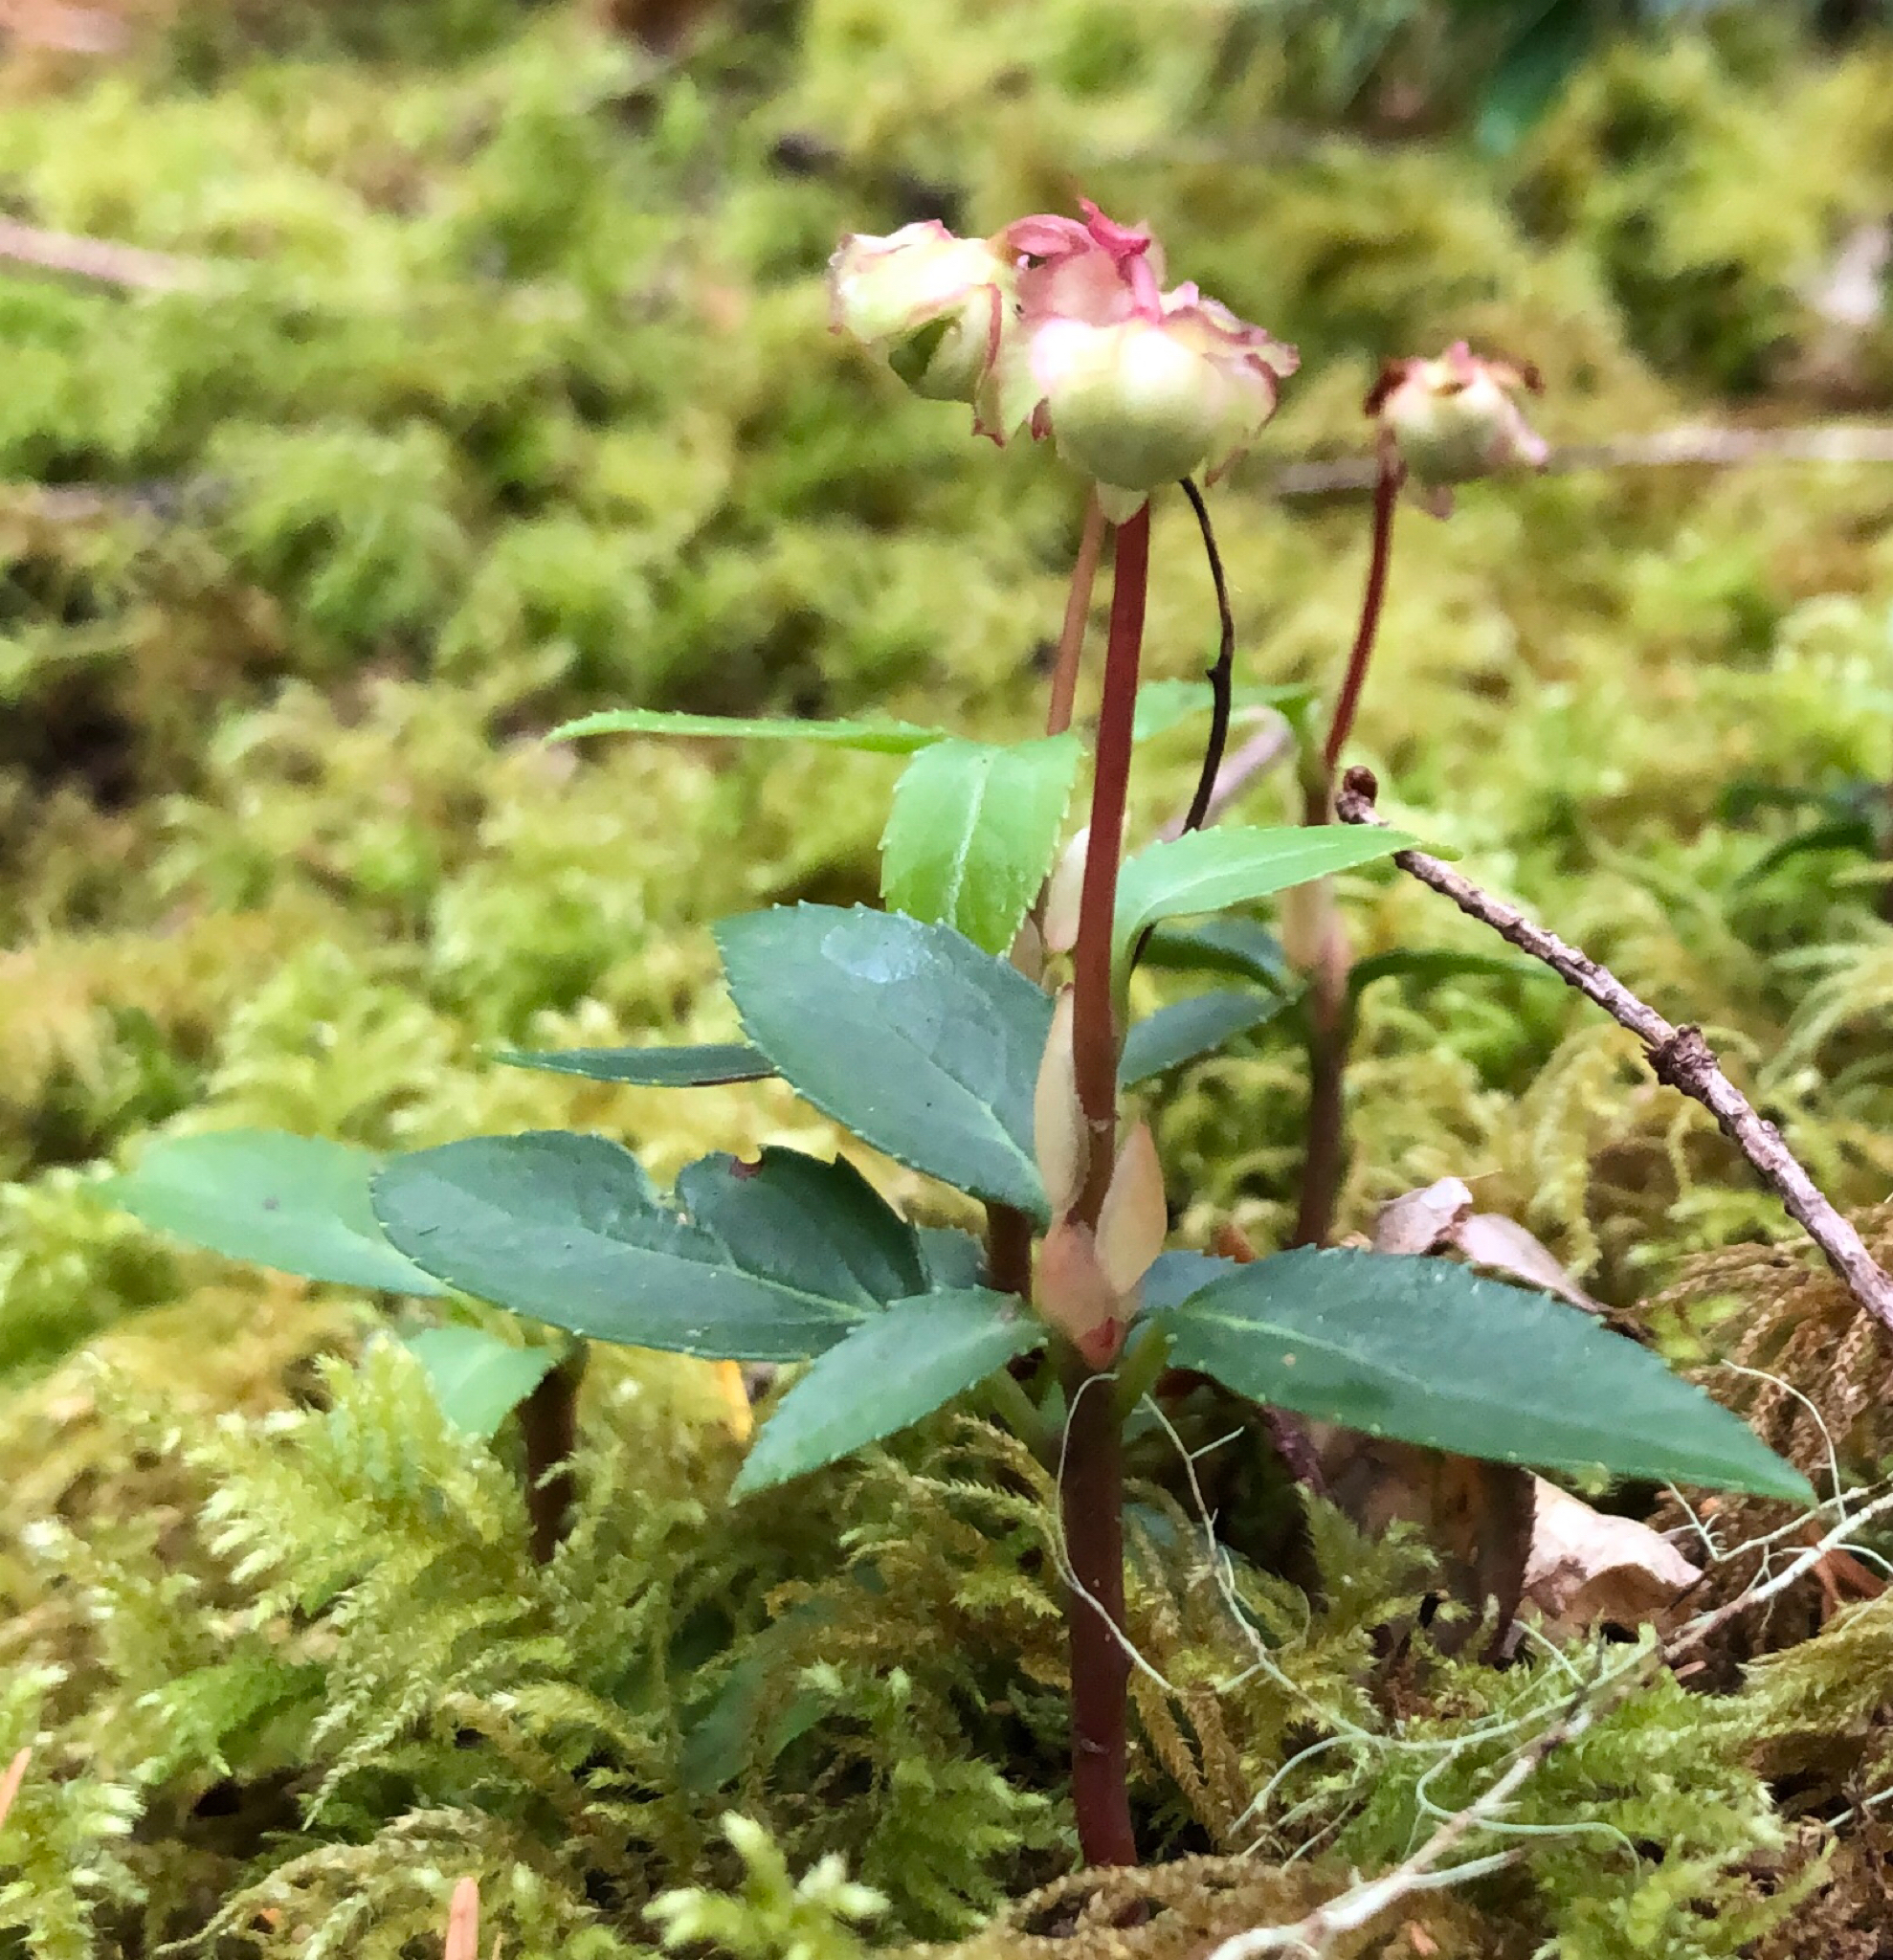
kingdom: Plantae
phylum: Tracheophyta
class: Magnoliopsida
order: Ericales
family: Ericaceae
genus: Chimaphila
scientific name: Chimaphila menziesii
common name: Menzies' pipsissewa
